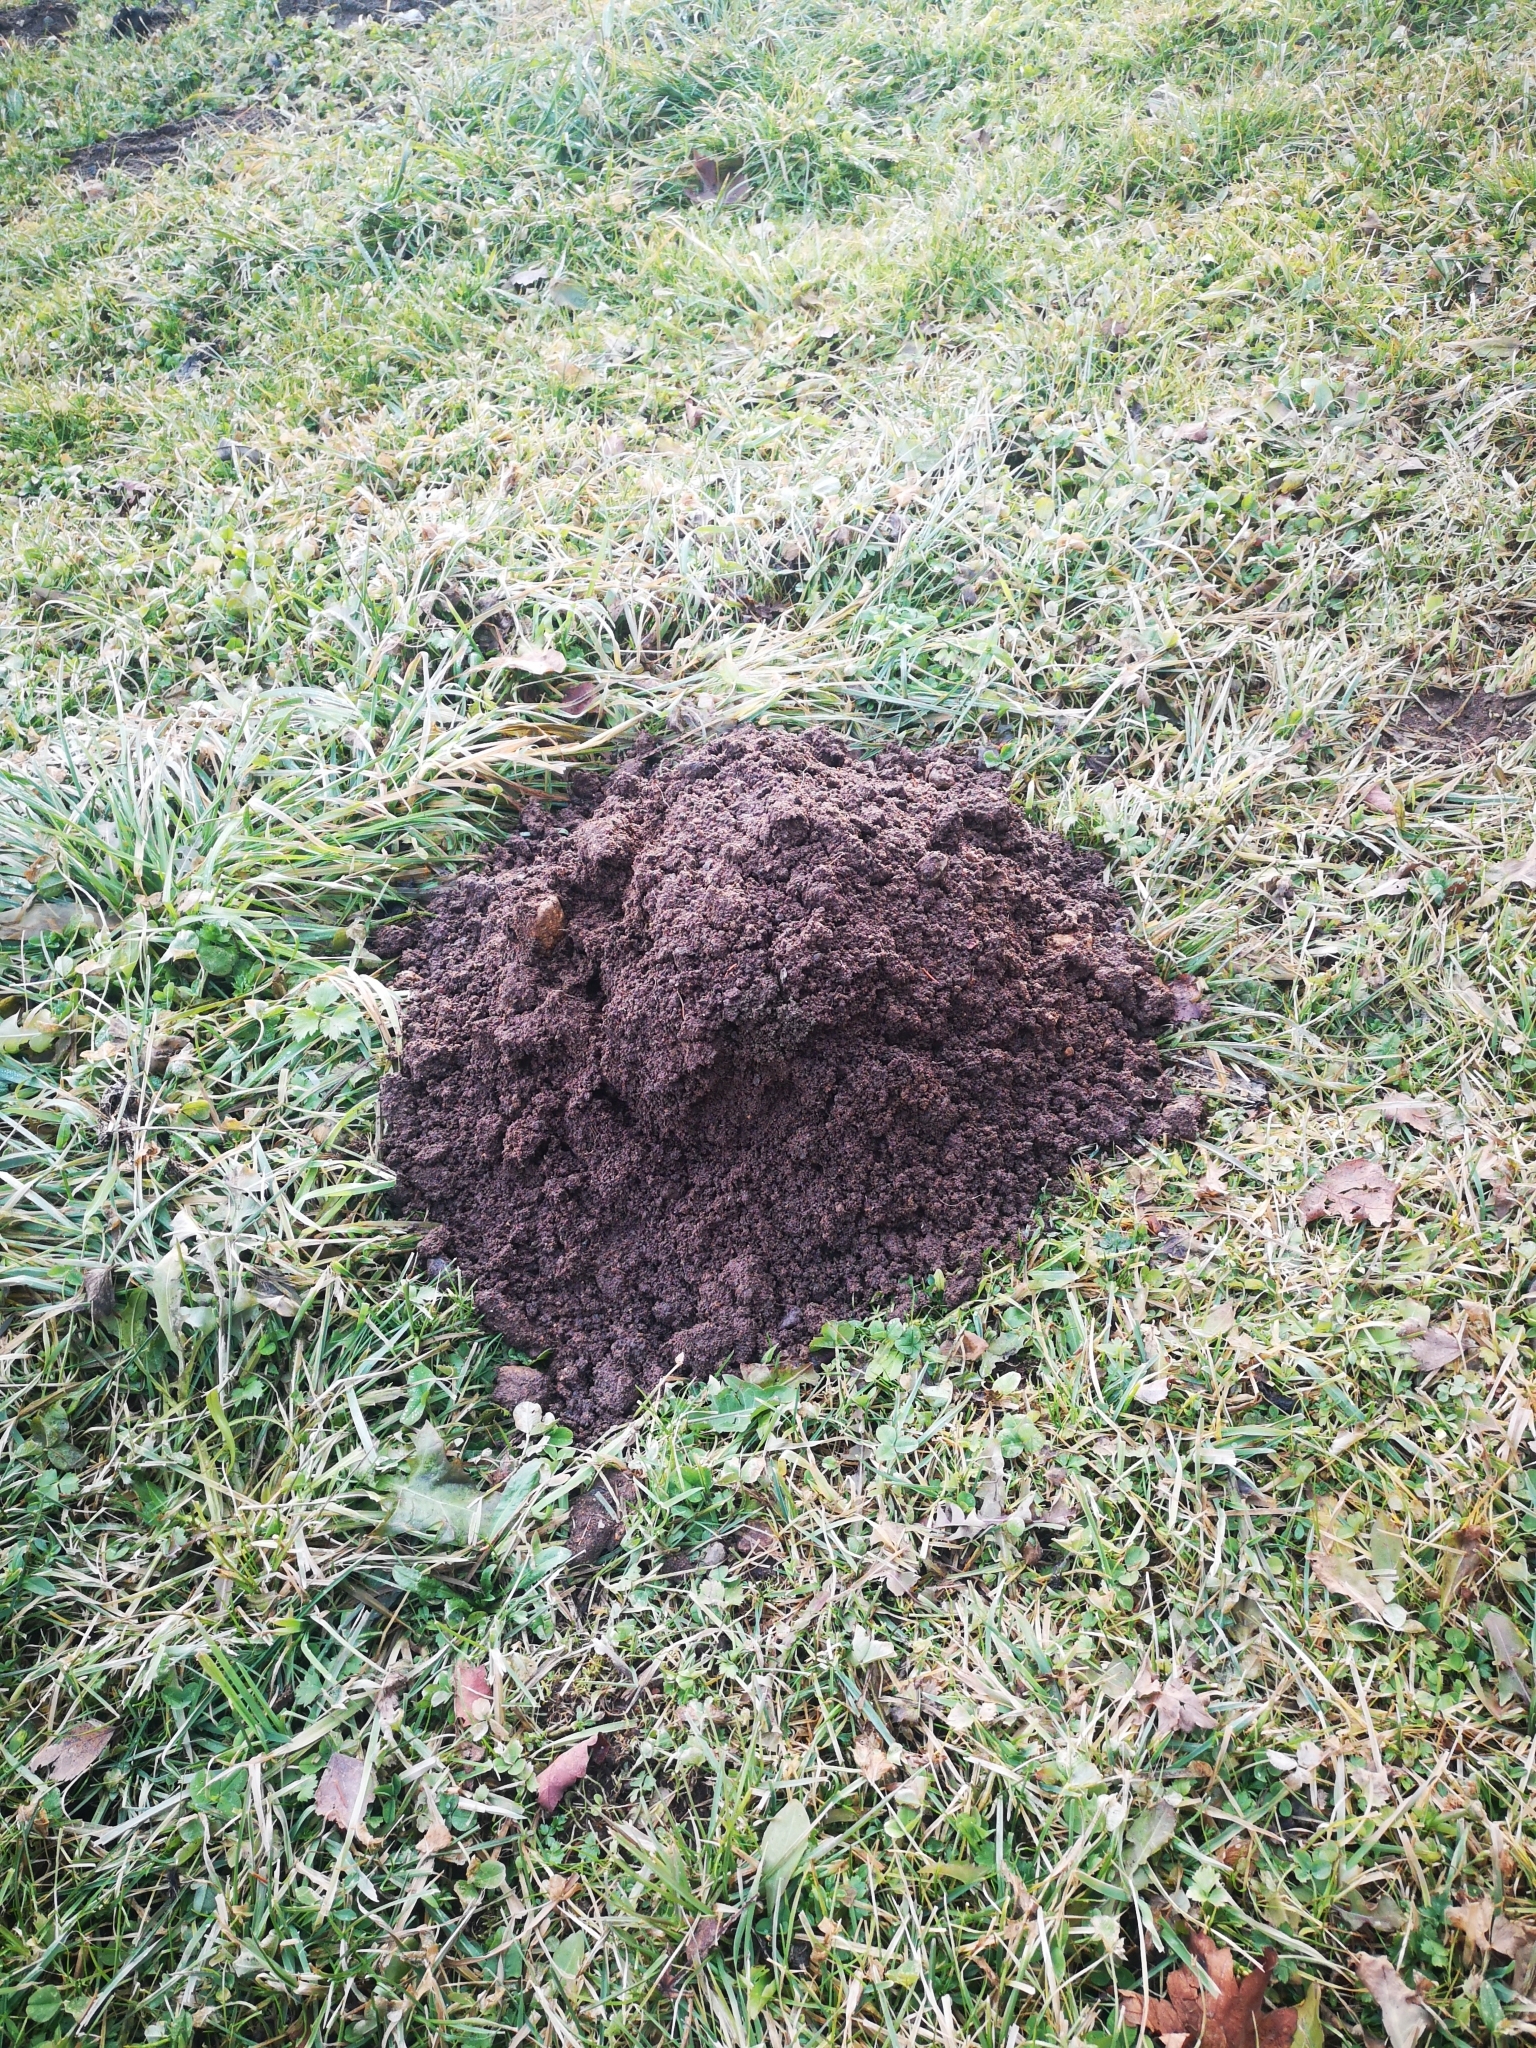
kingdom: Animalia
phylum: Chordata
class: Mammalia
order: Soricomorpha
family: Talpidae
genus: Talpa
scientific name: Talpa europaea
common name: European mole
